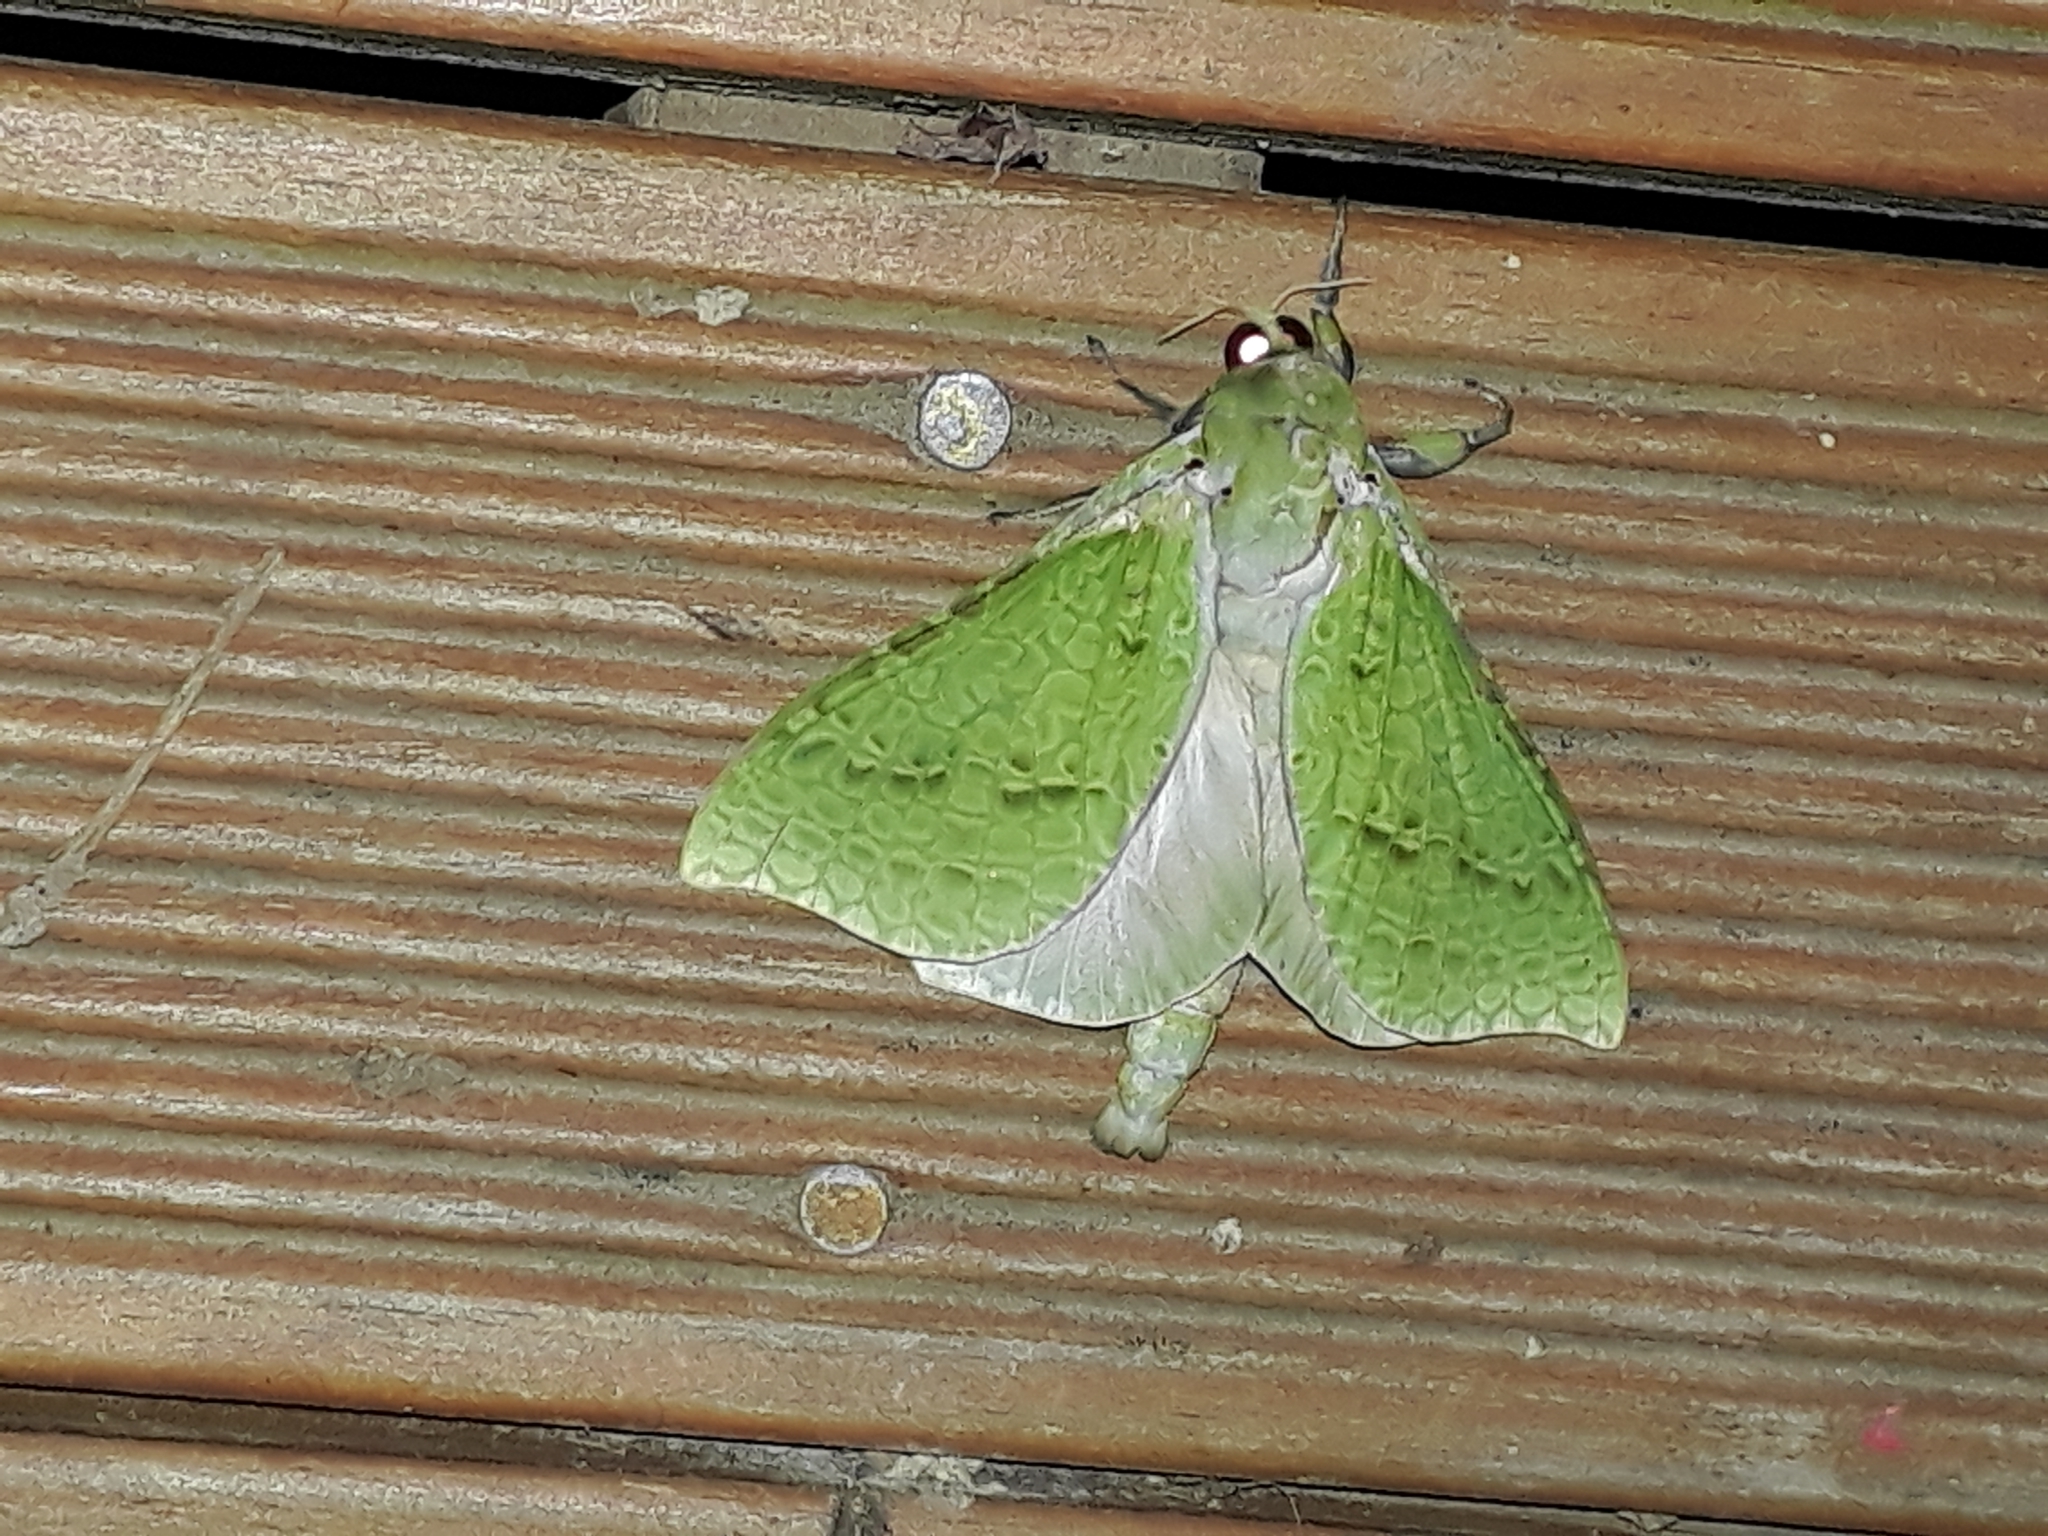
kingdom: Animalia
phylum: Arthropoda
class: Insecta
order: Lepidoptera
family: Hepialidae
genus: Aenetus
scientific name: Aenetus virescens
